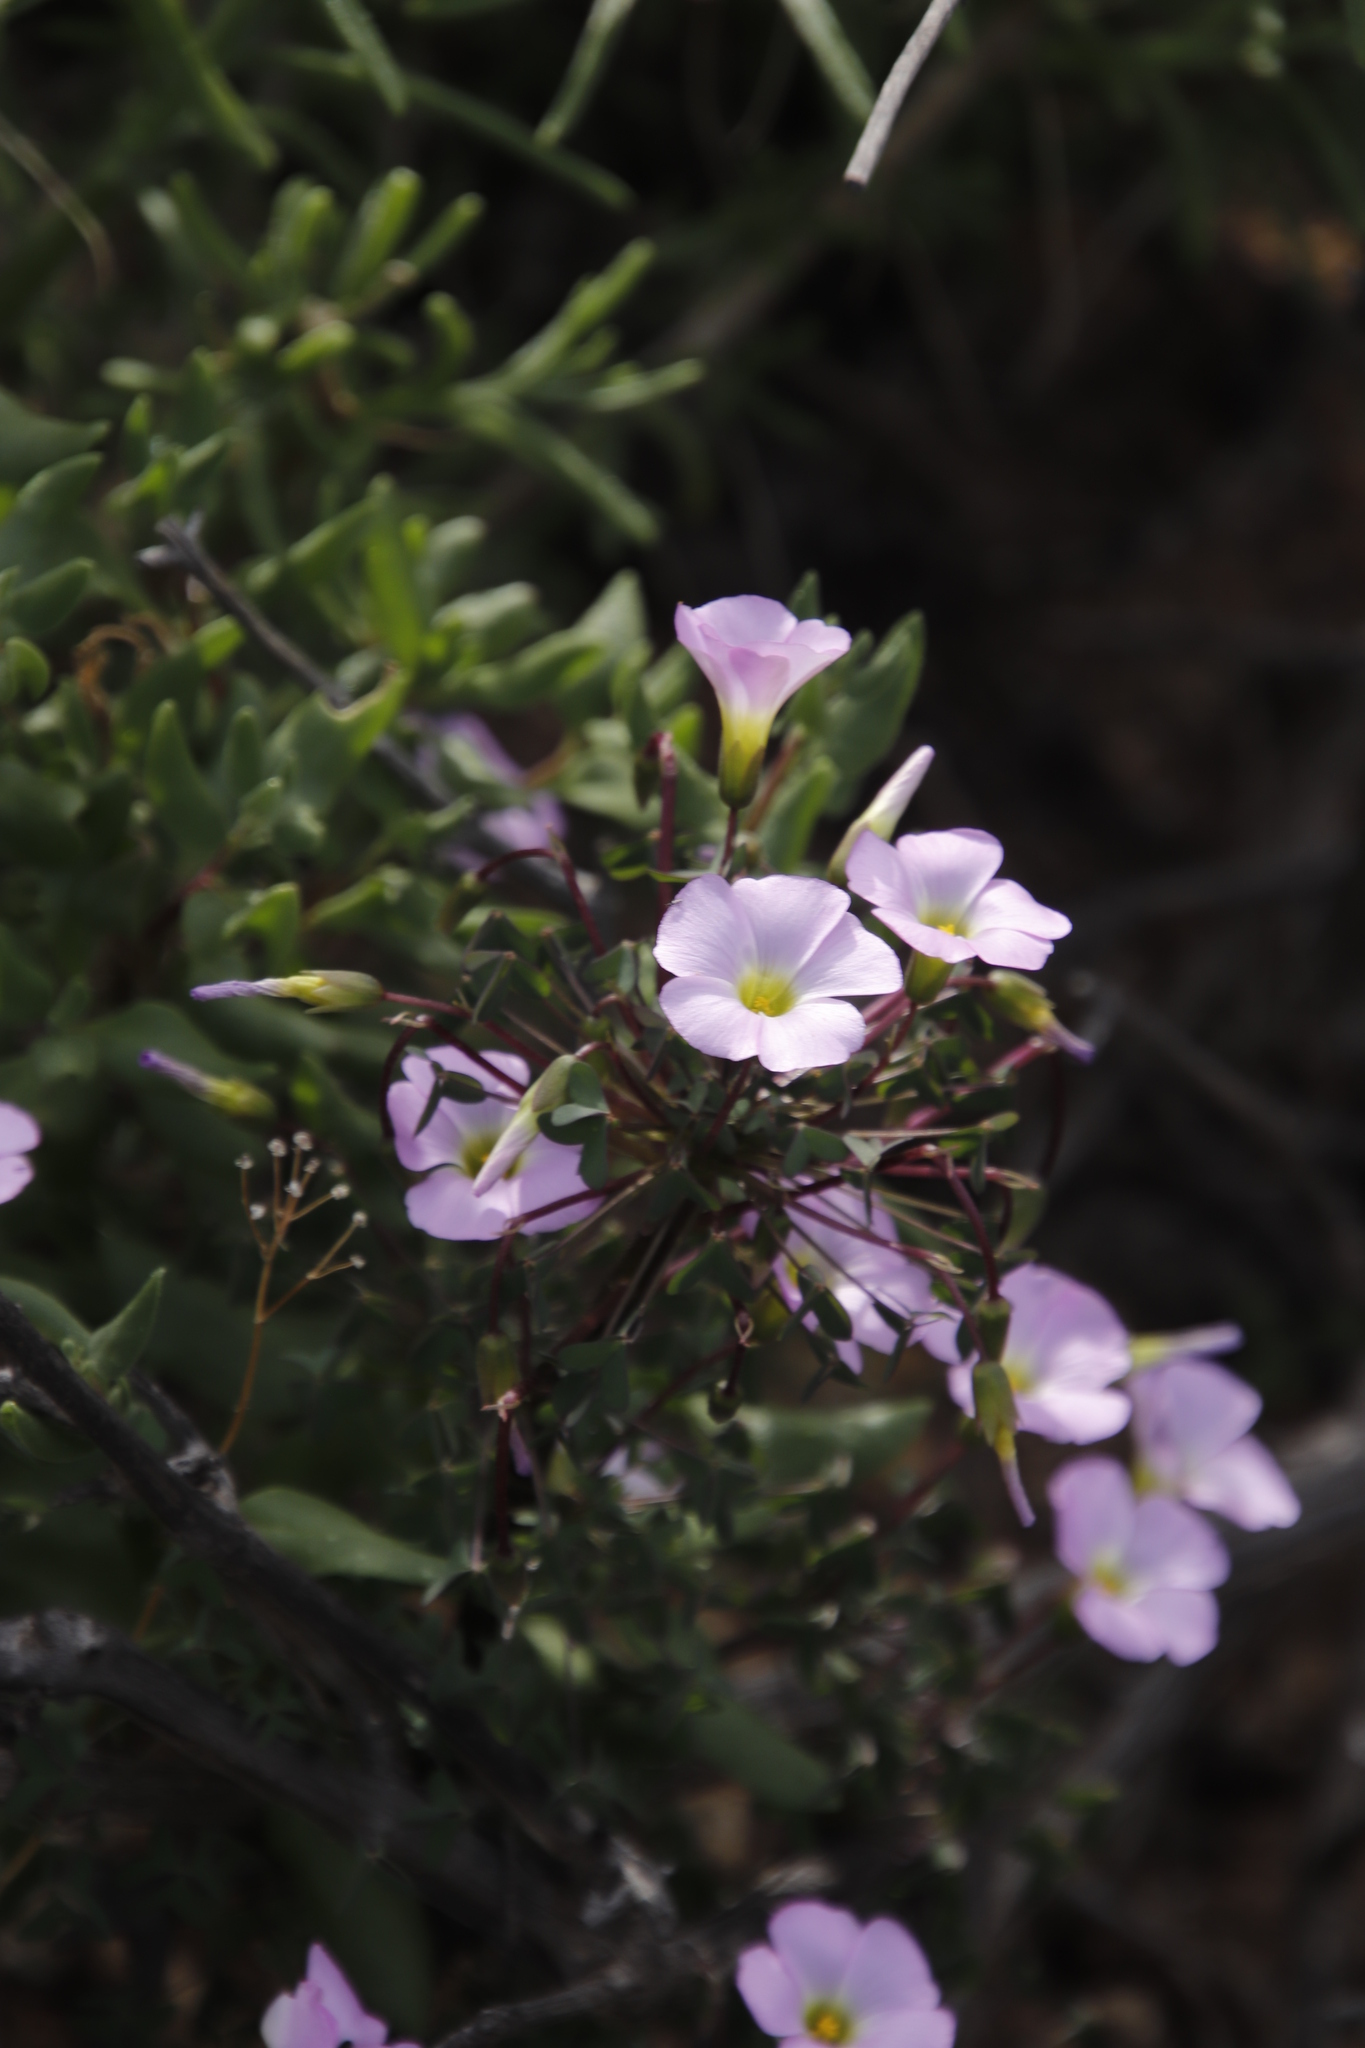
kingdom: Plantae
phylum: Tracheophyta
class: Magnoliopsida
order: Oxalidales
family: Oxalidaceae
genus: Oxalis
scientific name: Oxalis comosa
